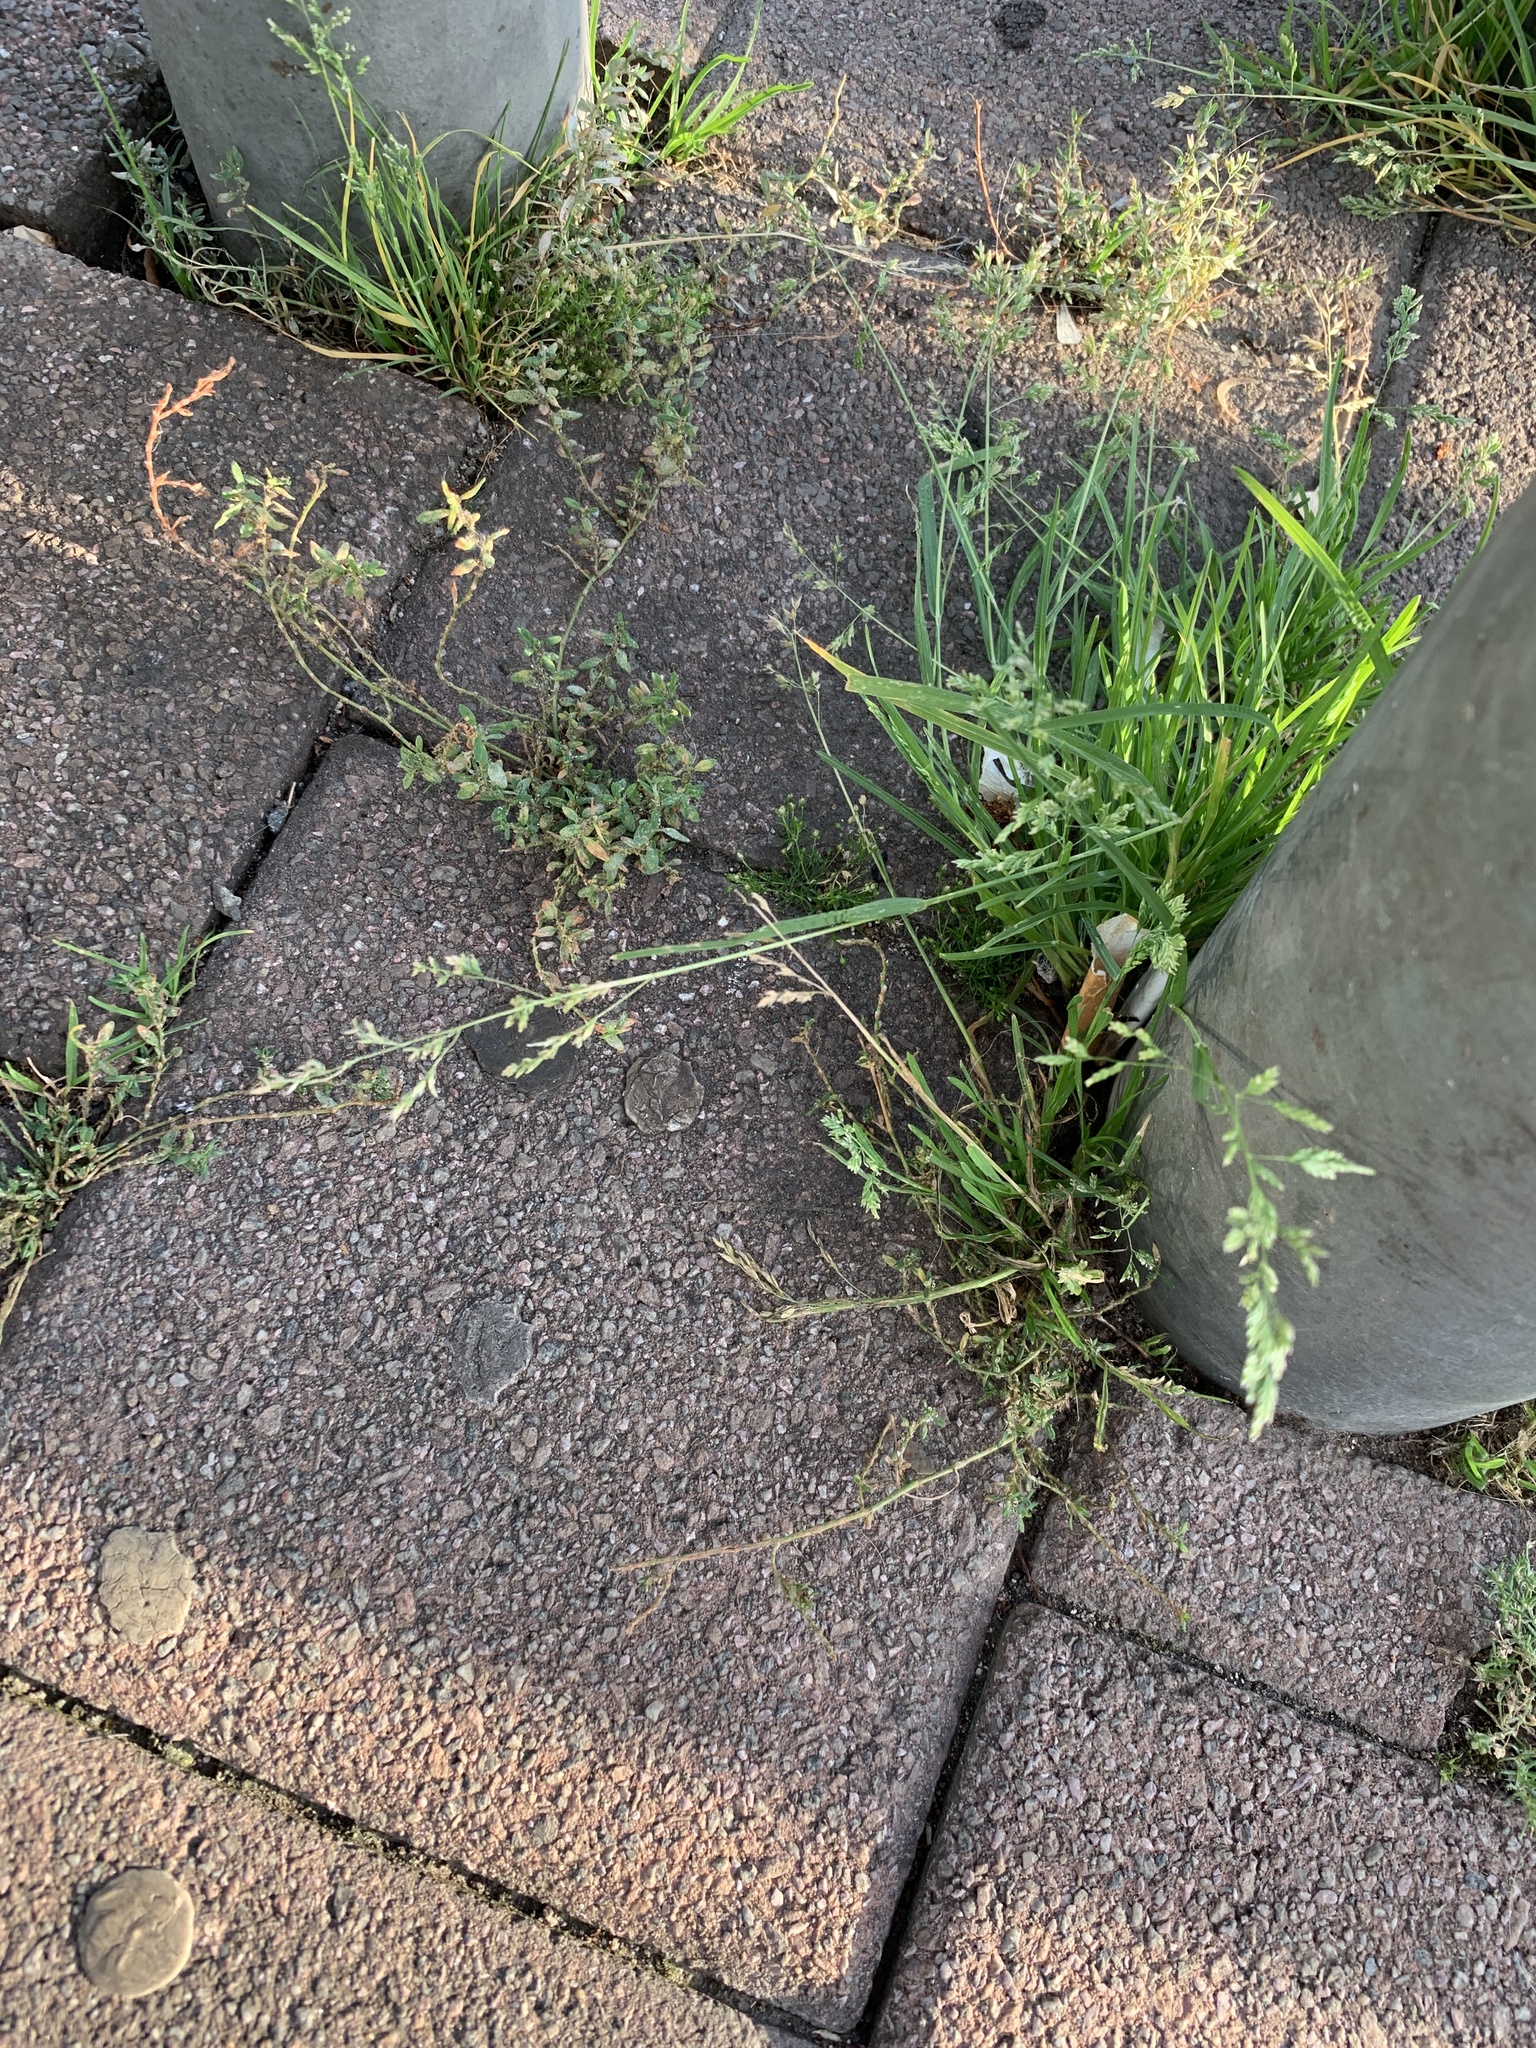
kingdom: Plantae
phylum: Tracheophyta
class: Liliopsida
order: Poales
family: Poaceae
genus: Poa
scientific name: Poa annua
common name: Annual bluegrass
